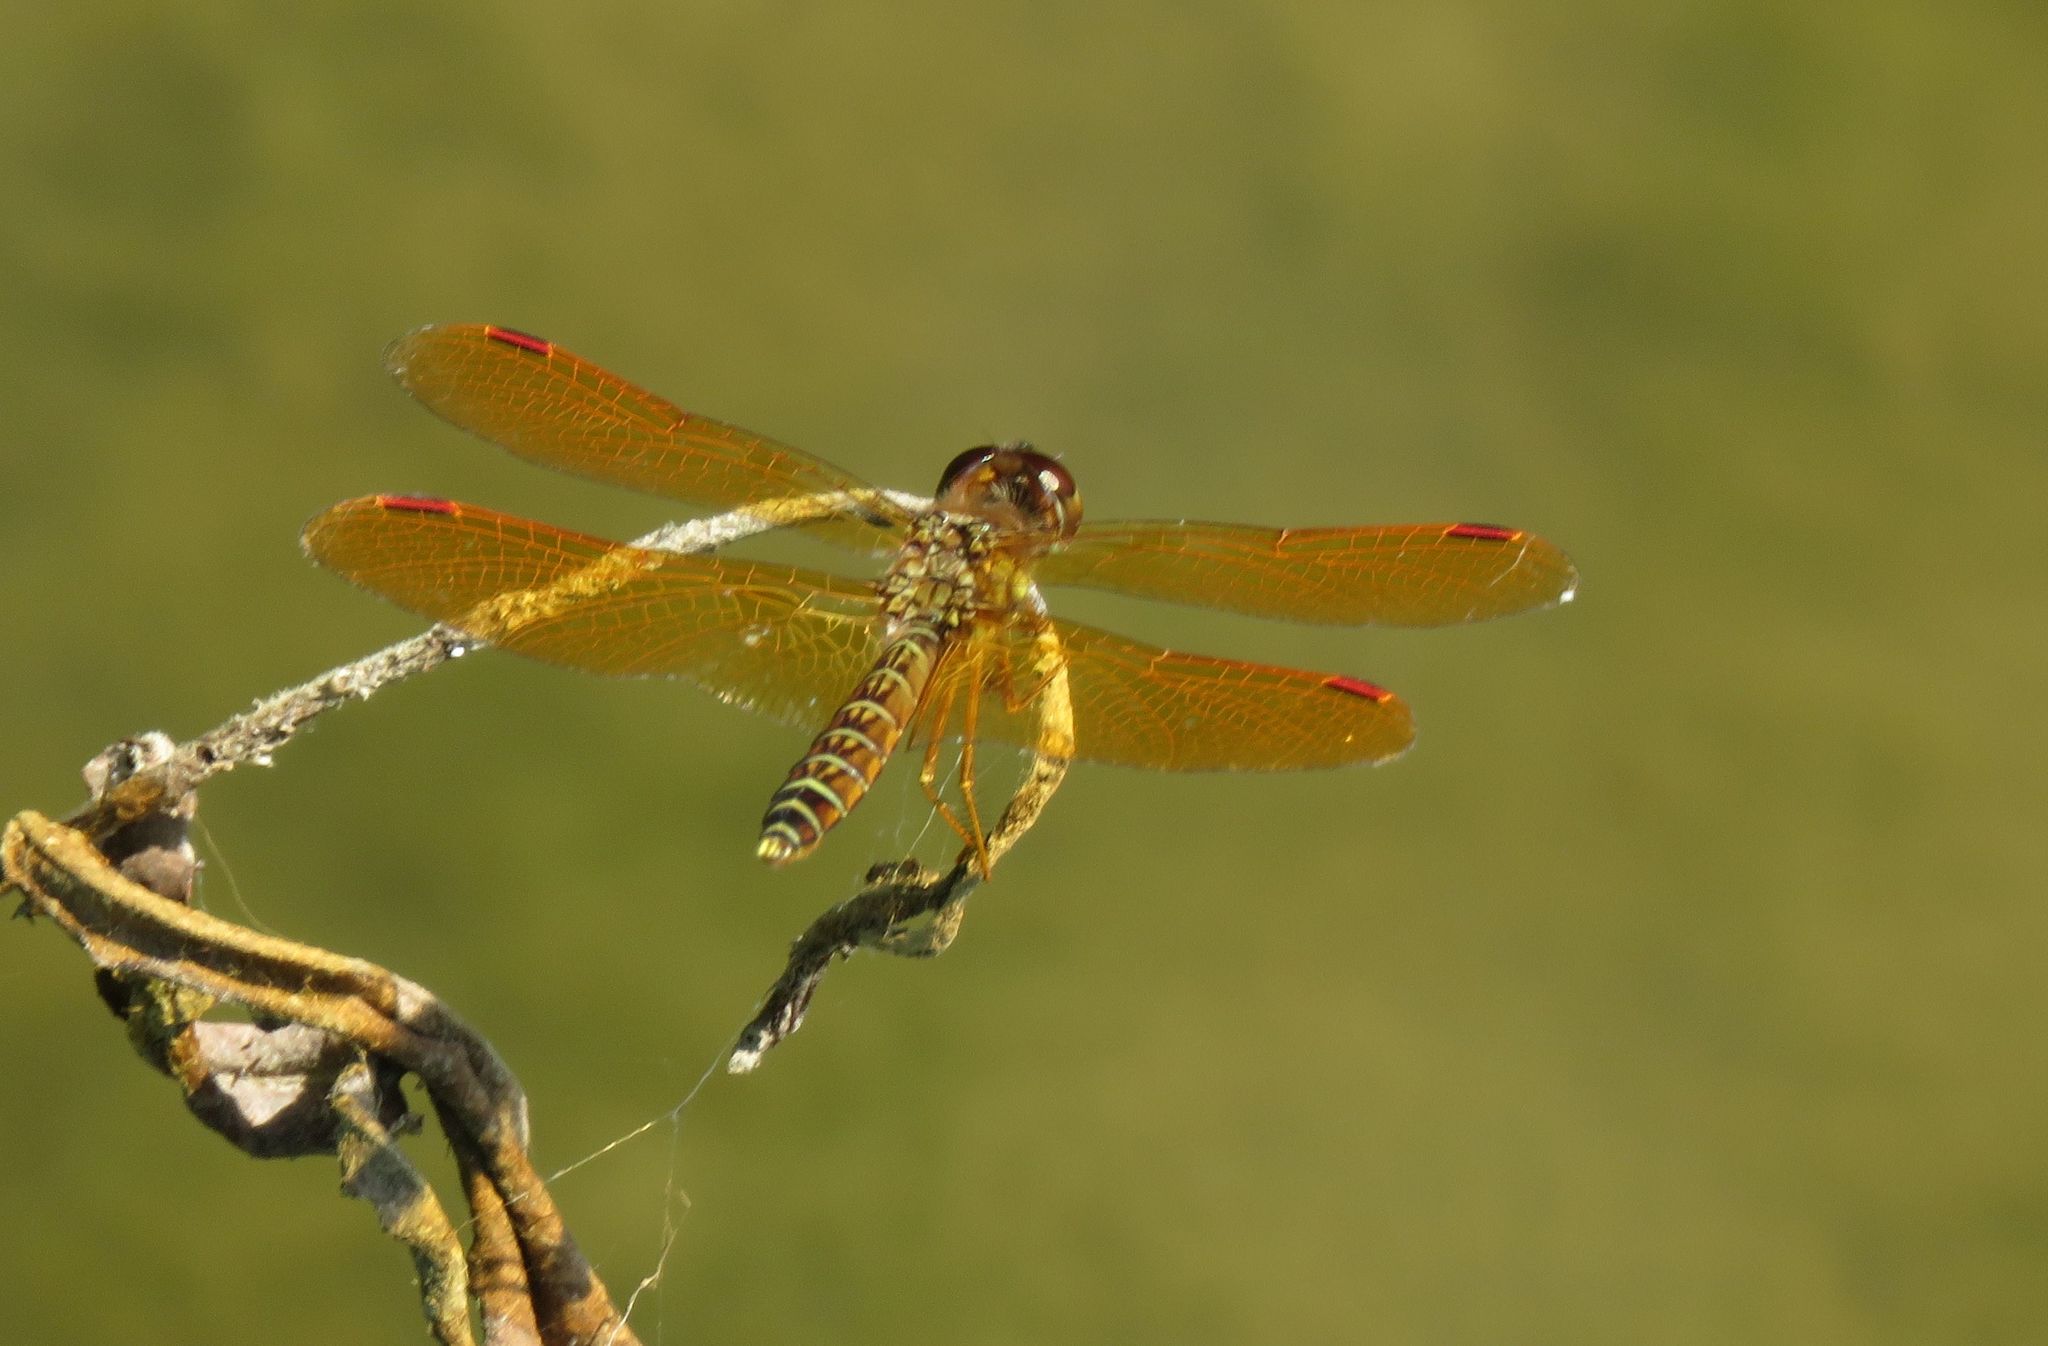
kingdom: Animalia
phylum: Arthropoda
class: Insecta
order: Odonata
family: Libellulidae
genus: Perithemis
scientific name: Perithemis tenera
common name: Eastern amberwing
